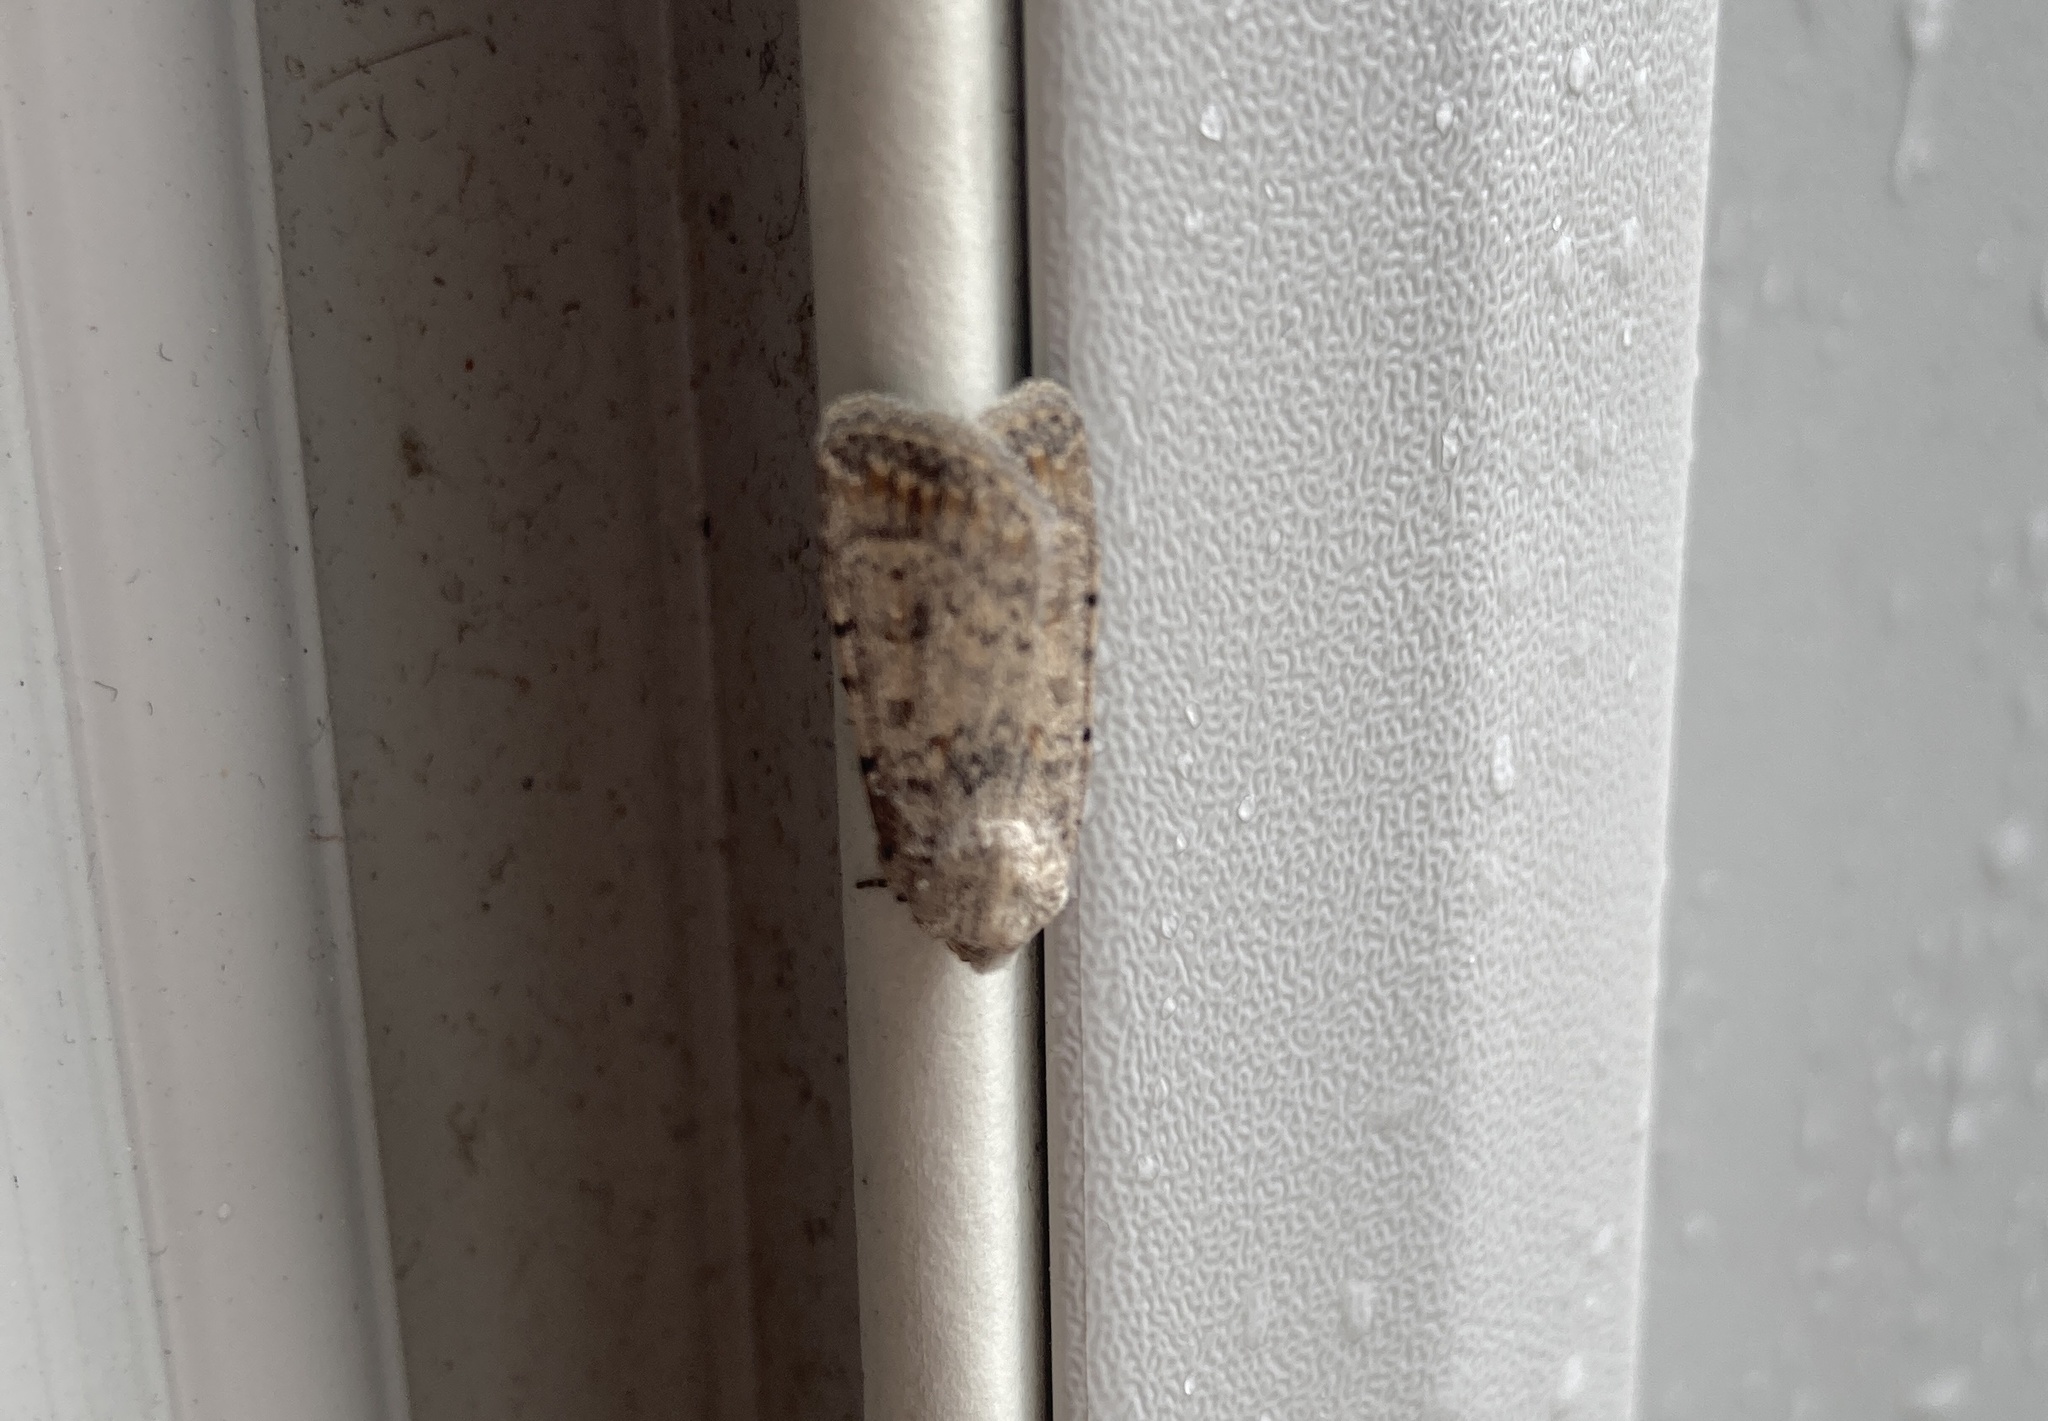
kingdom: Animalia
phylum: Arthropoda
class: Insecta
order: Lepidoptera
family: Noctuidae
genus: Caradrina
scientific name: Caradrina clavipalpis
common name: Pale mottled willow
